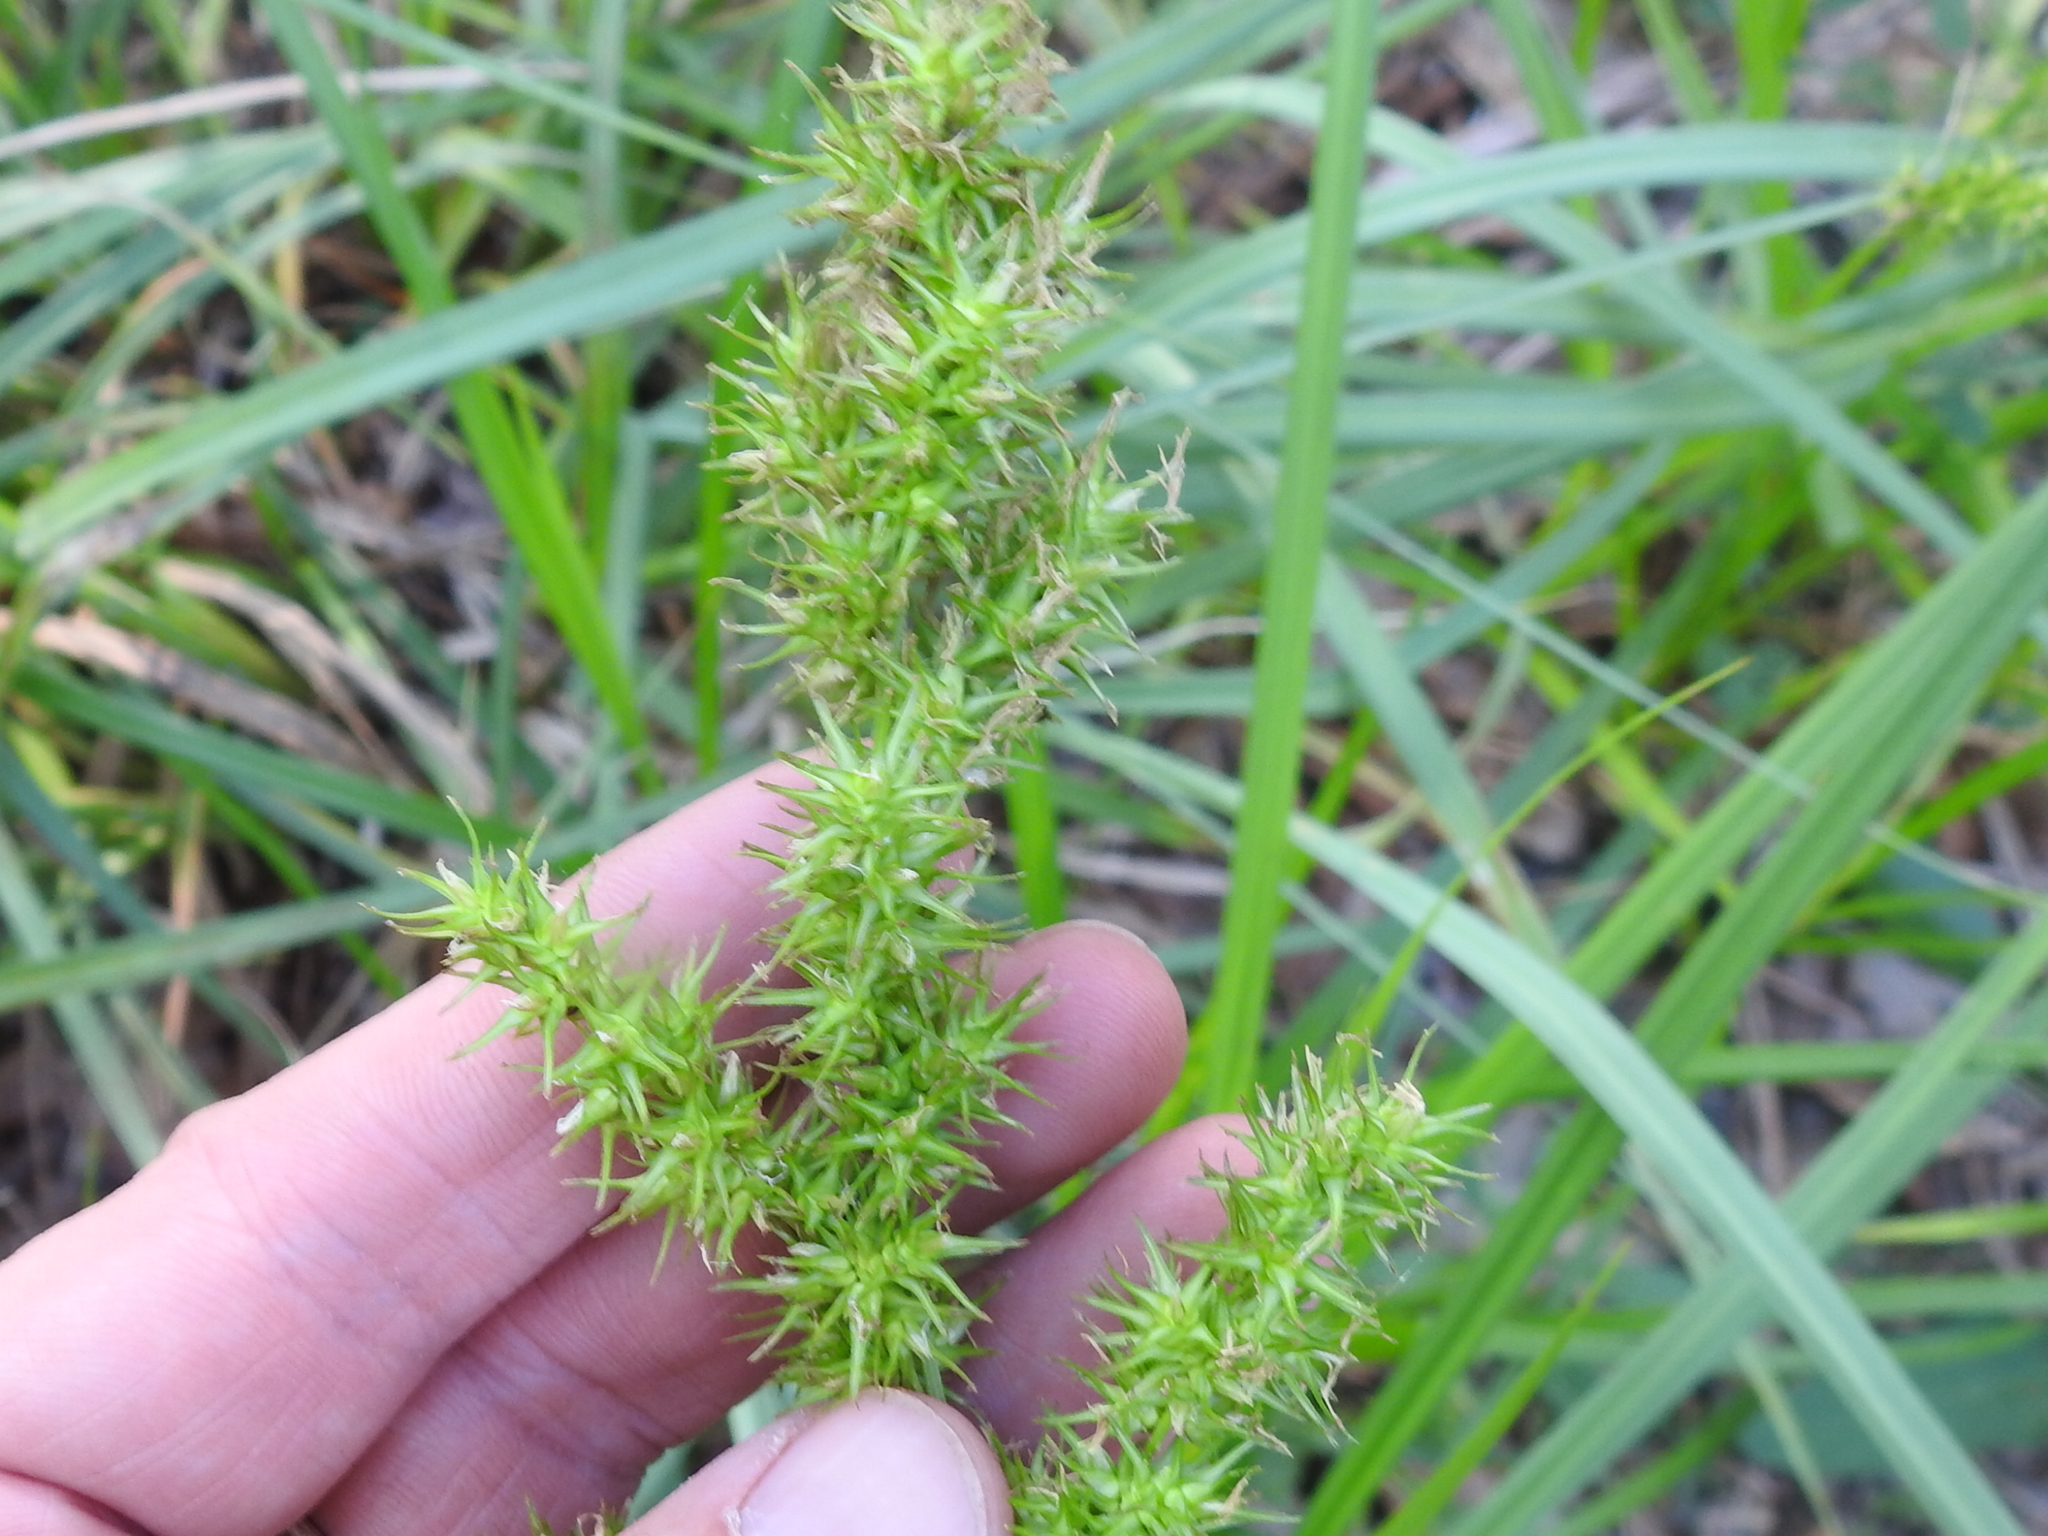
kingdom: Plantae
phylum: Tracheophyta
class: Liliopsida
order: Poales
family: Cyperaceae
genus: Carex
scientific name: Carex crus-corvi
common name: Crow-spur sedge
